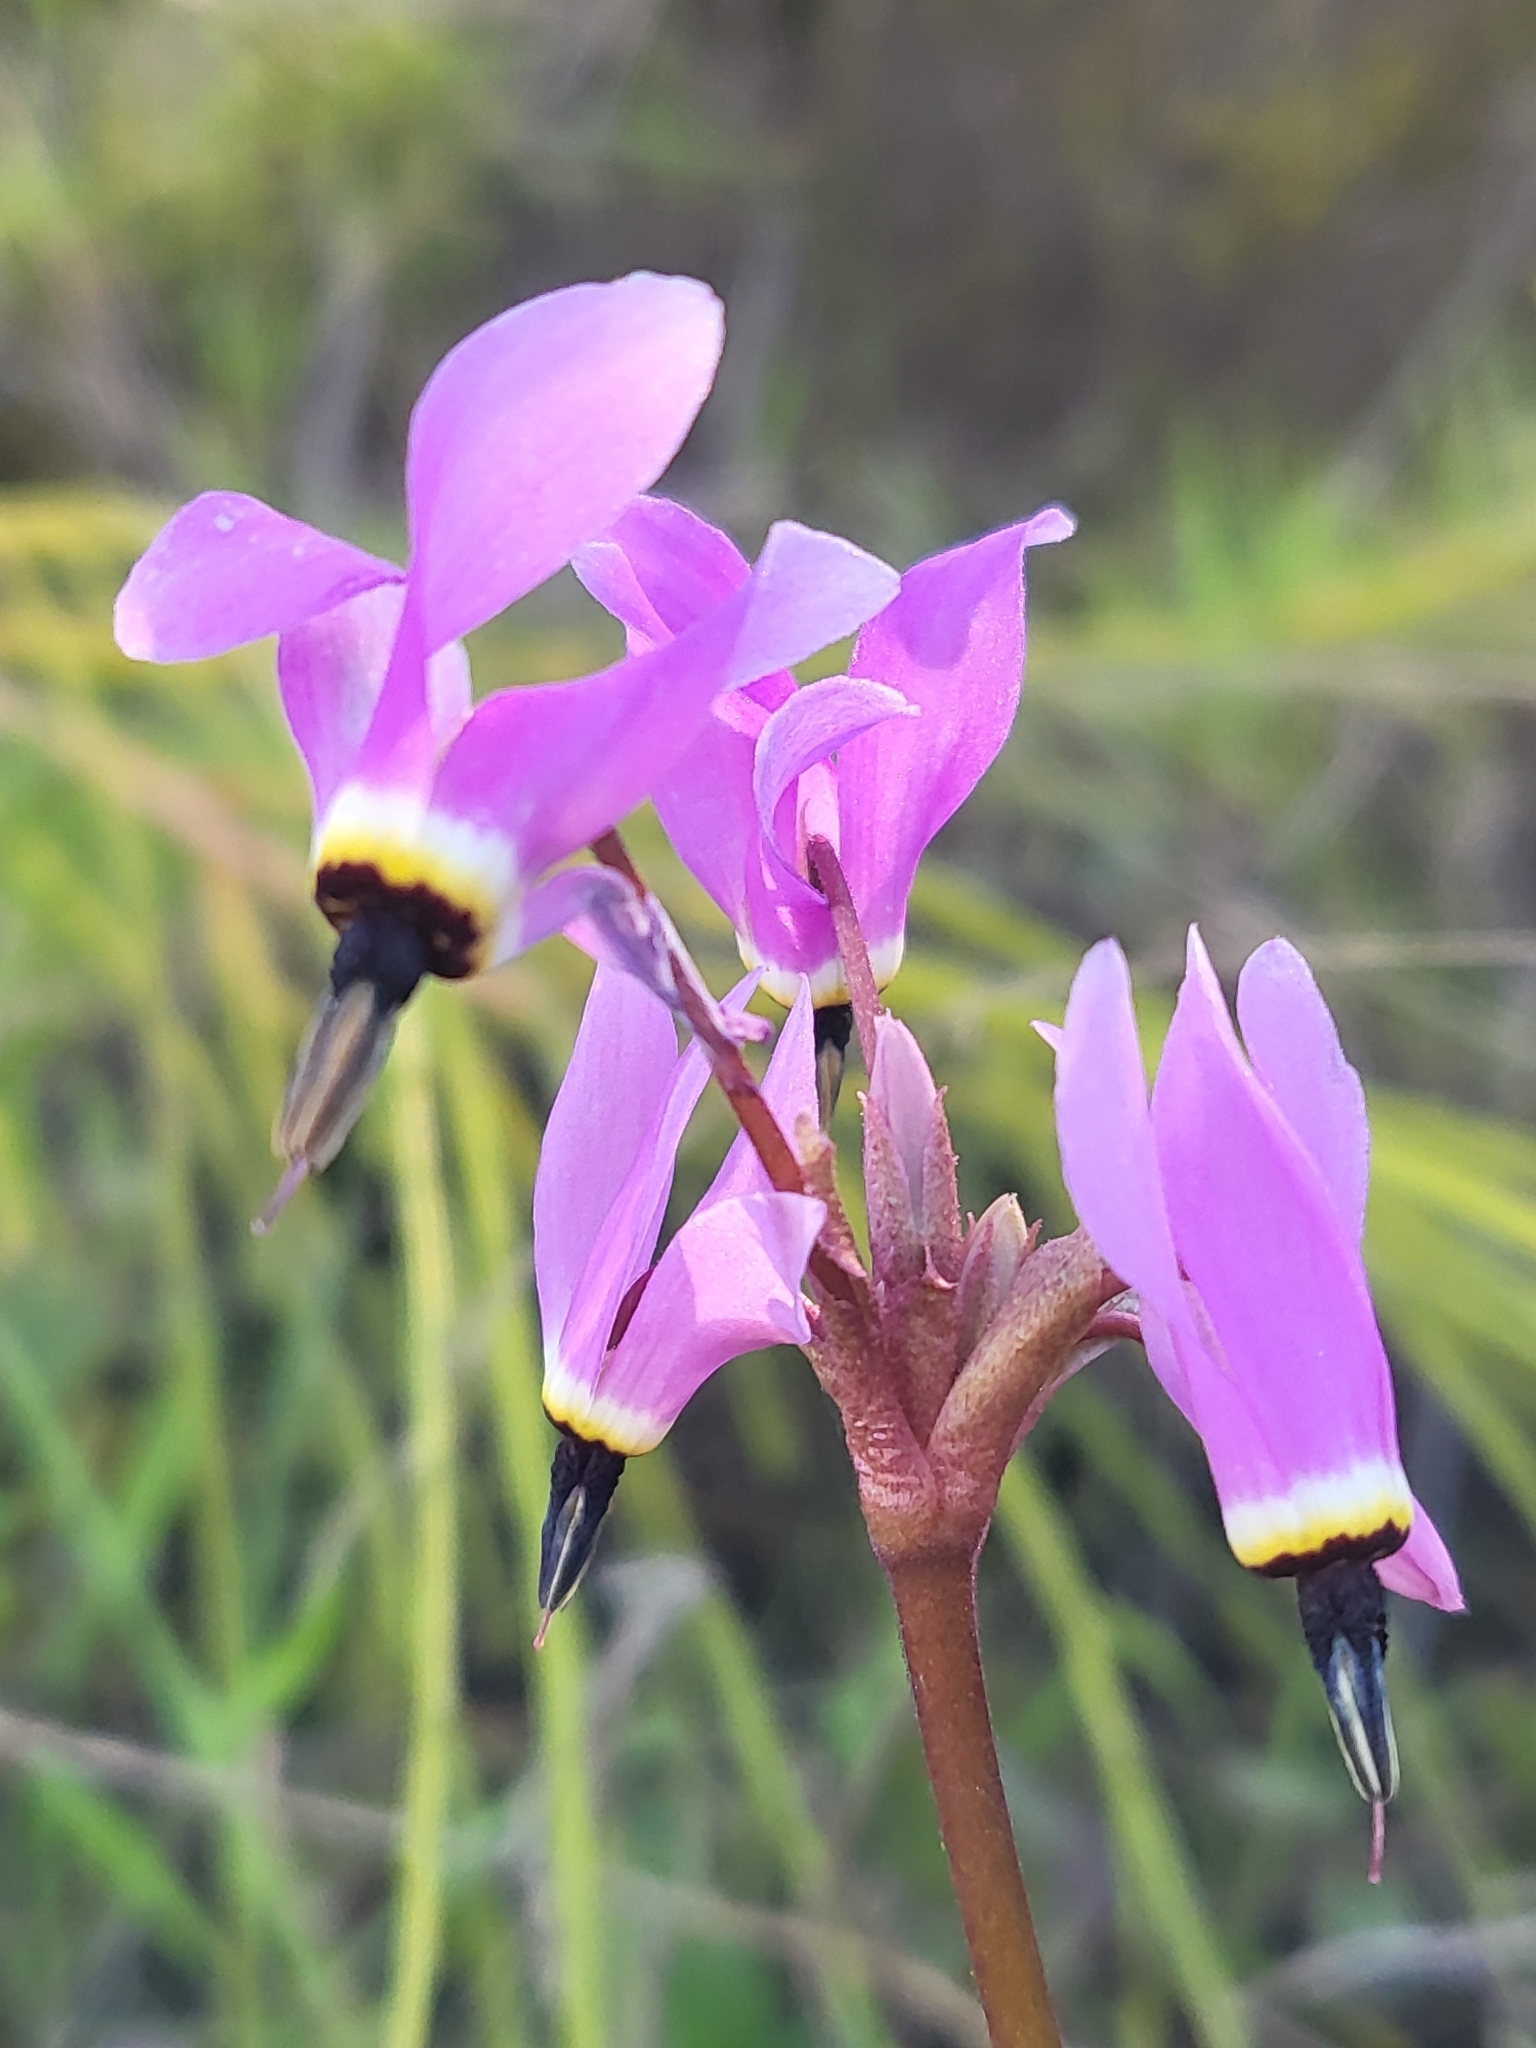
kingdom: Plantae
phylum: Tracheophyta
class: Magnoliopsida
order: Ericales
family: Primulaceae
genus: Dodecatheon
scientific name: Dodecatheon hendersonii
